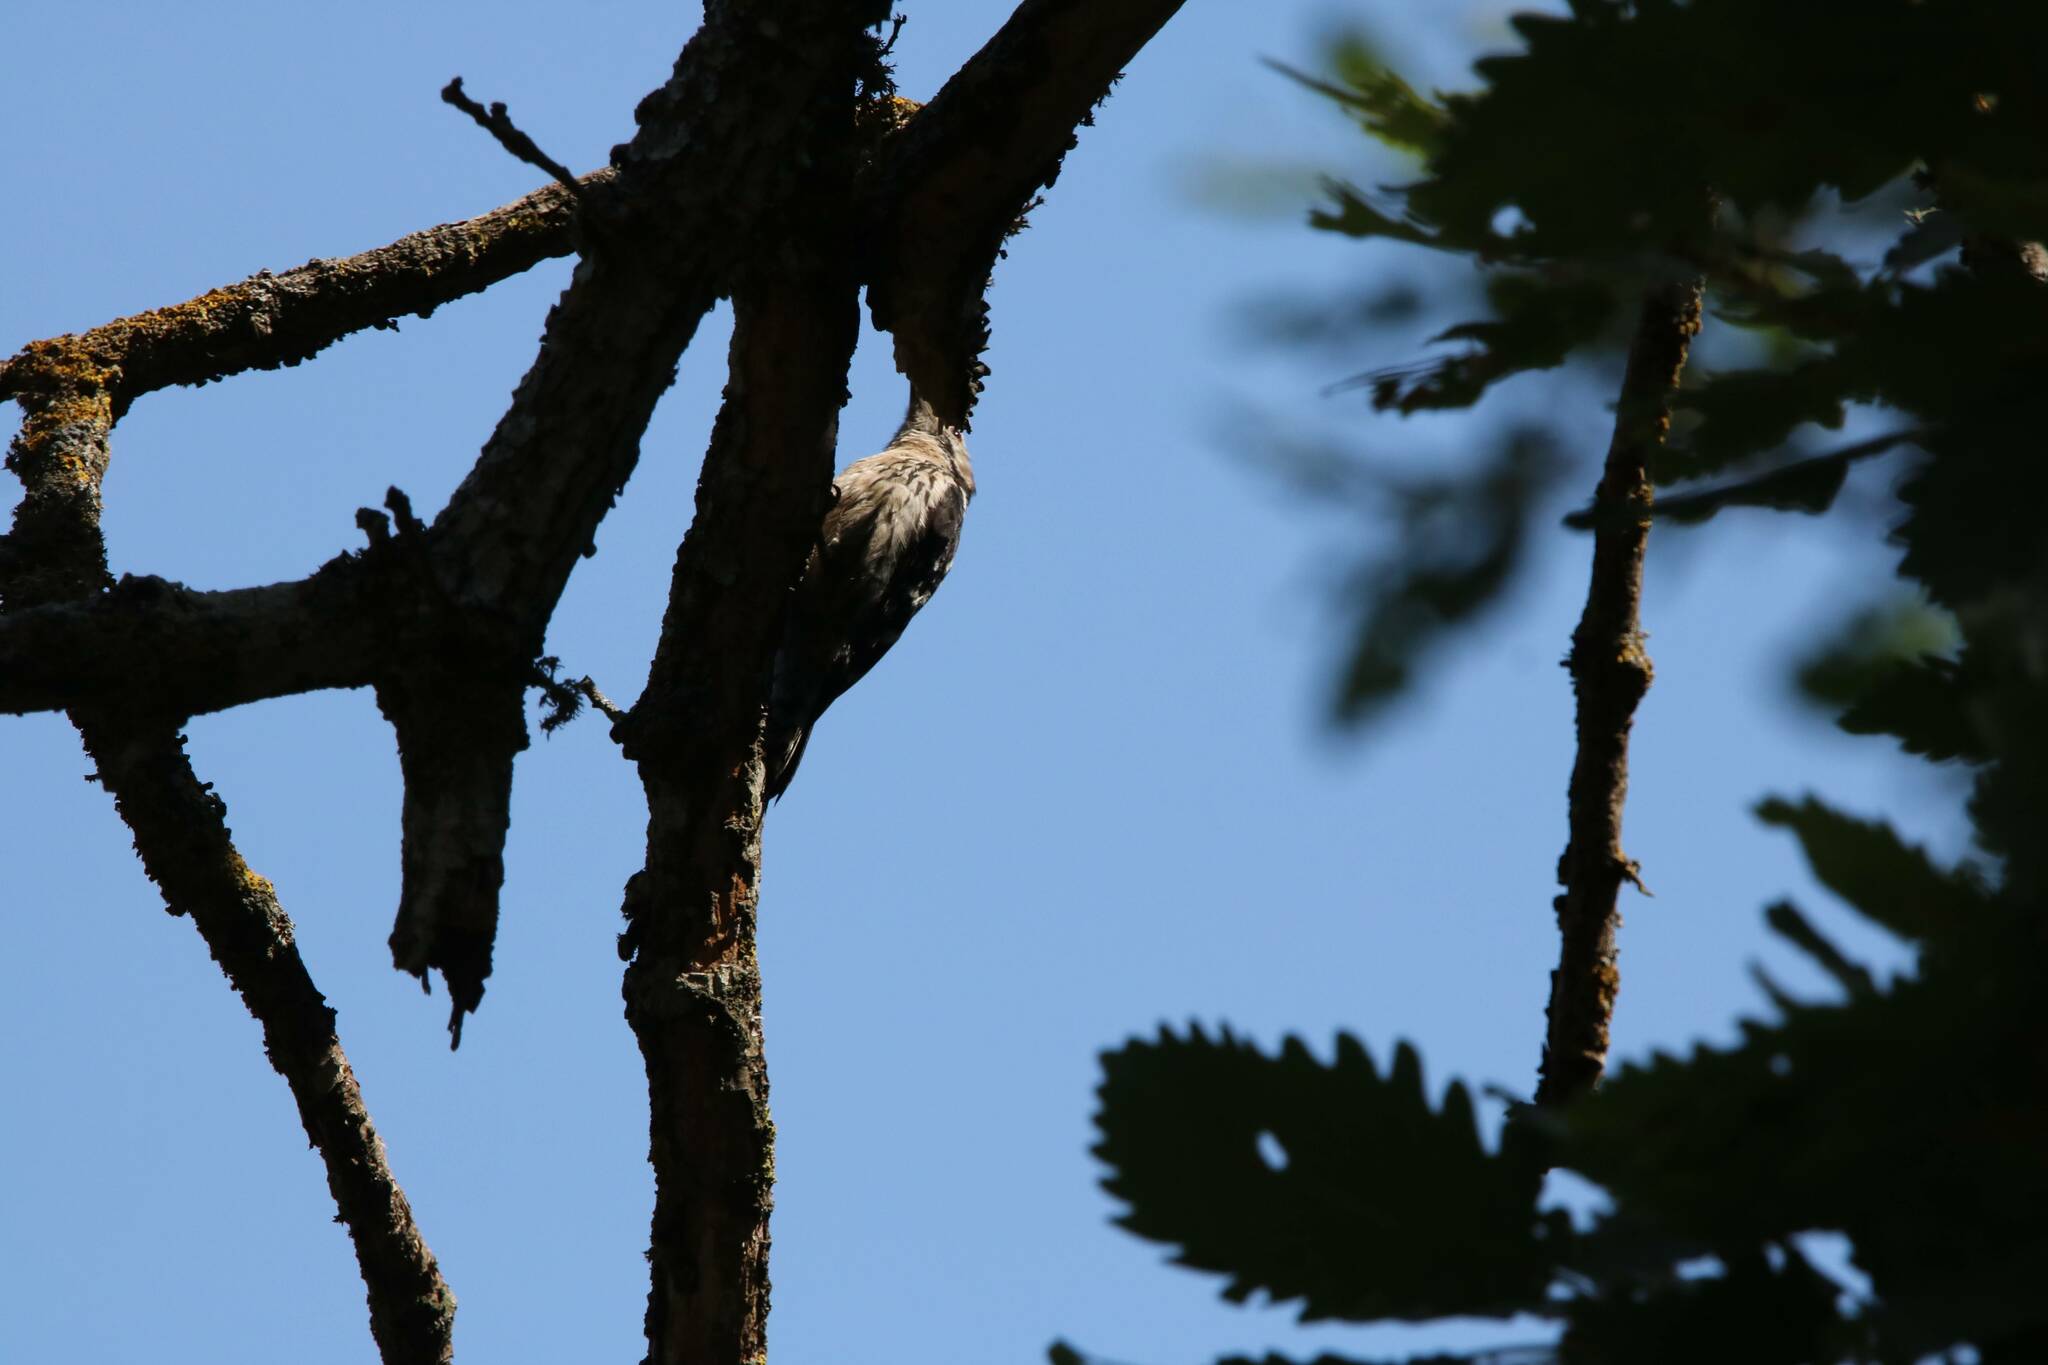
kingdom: Animalia
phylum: Chordata
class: Aves
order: Piciformes
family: Picidae
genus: Dryobates
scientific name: Dryobates minor
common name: Lesser spotted woodpecker
